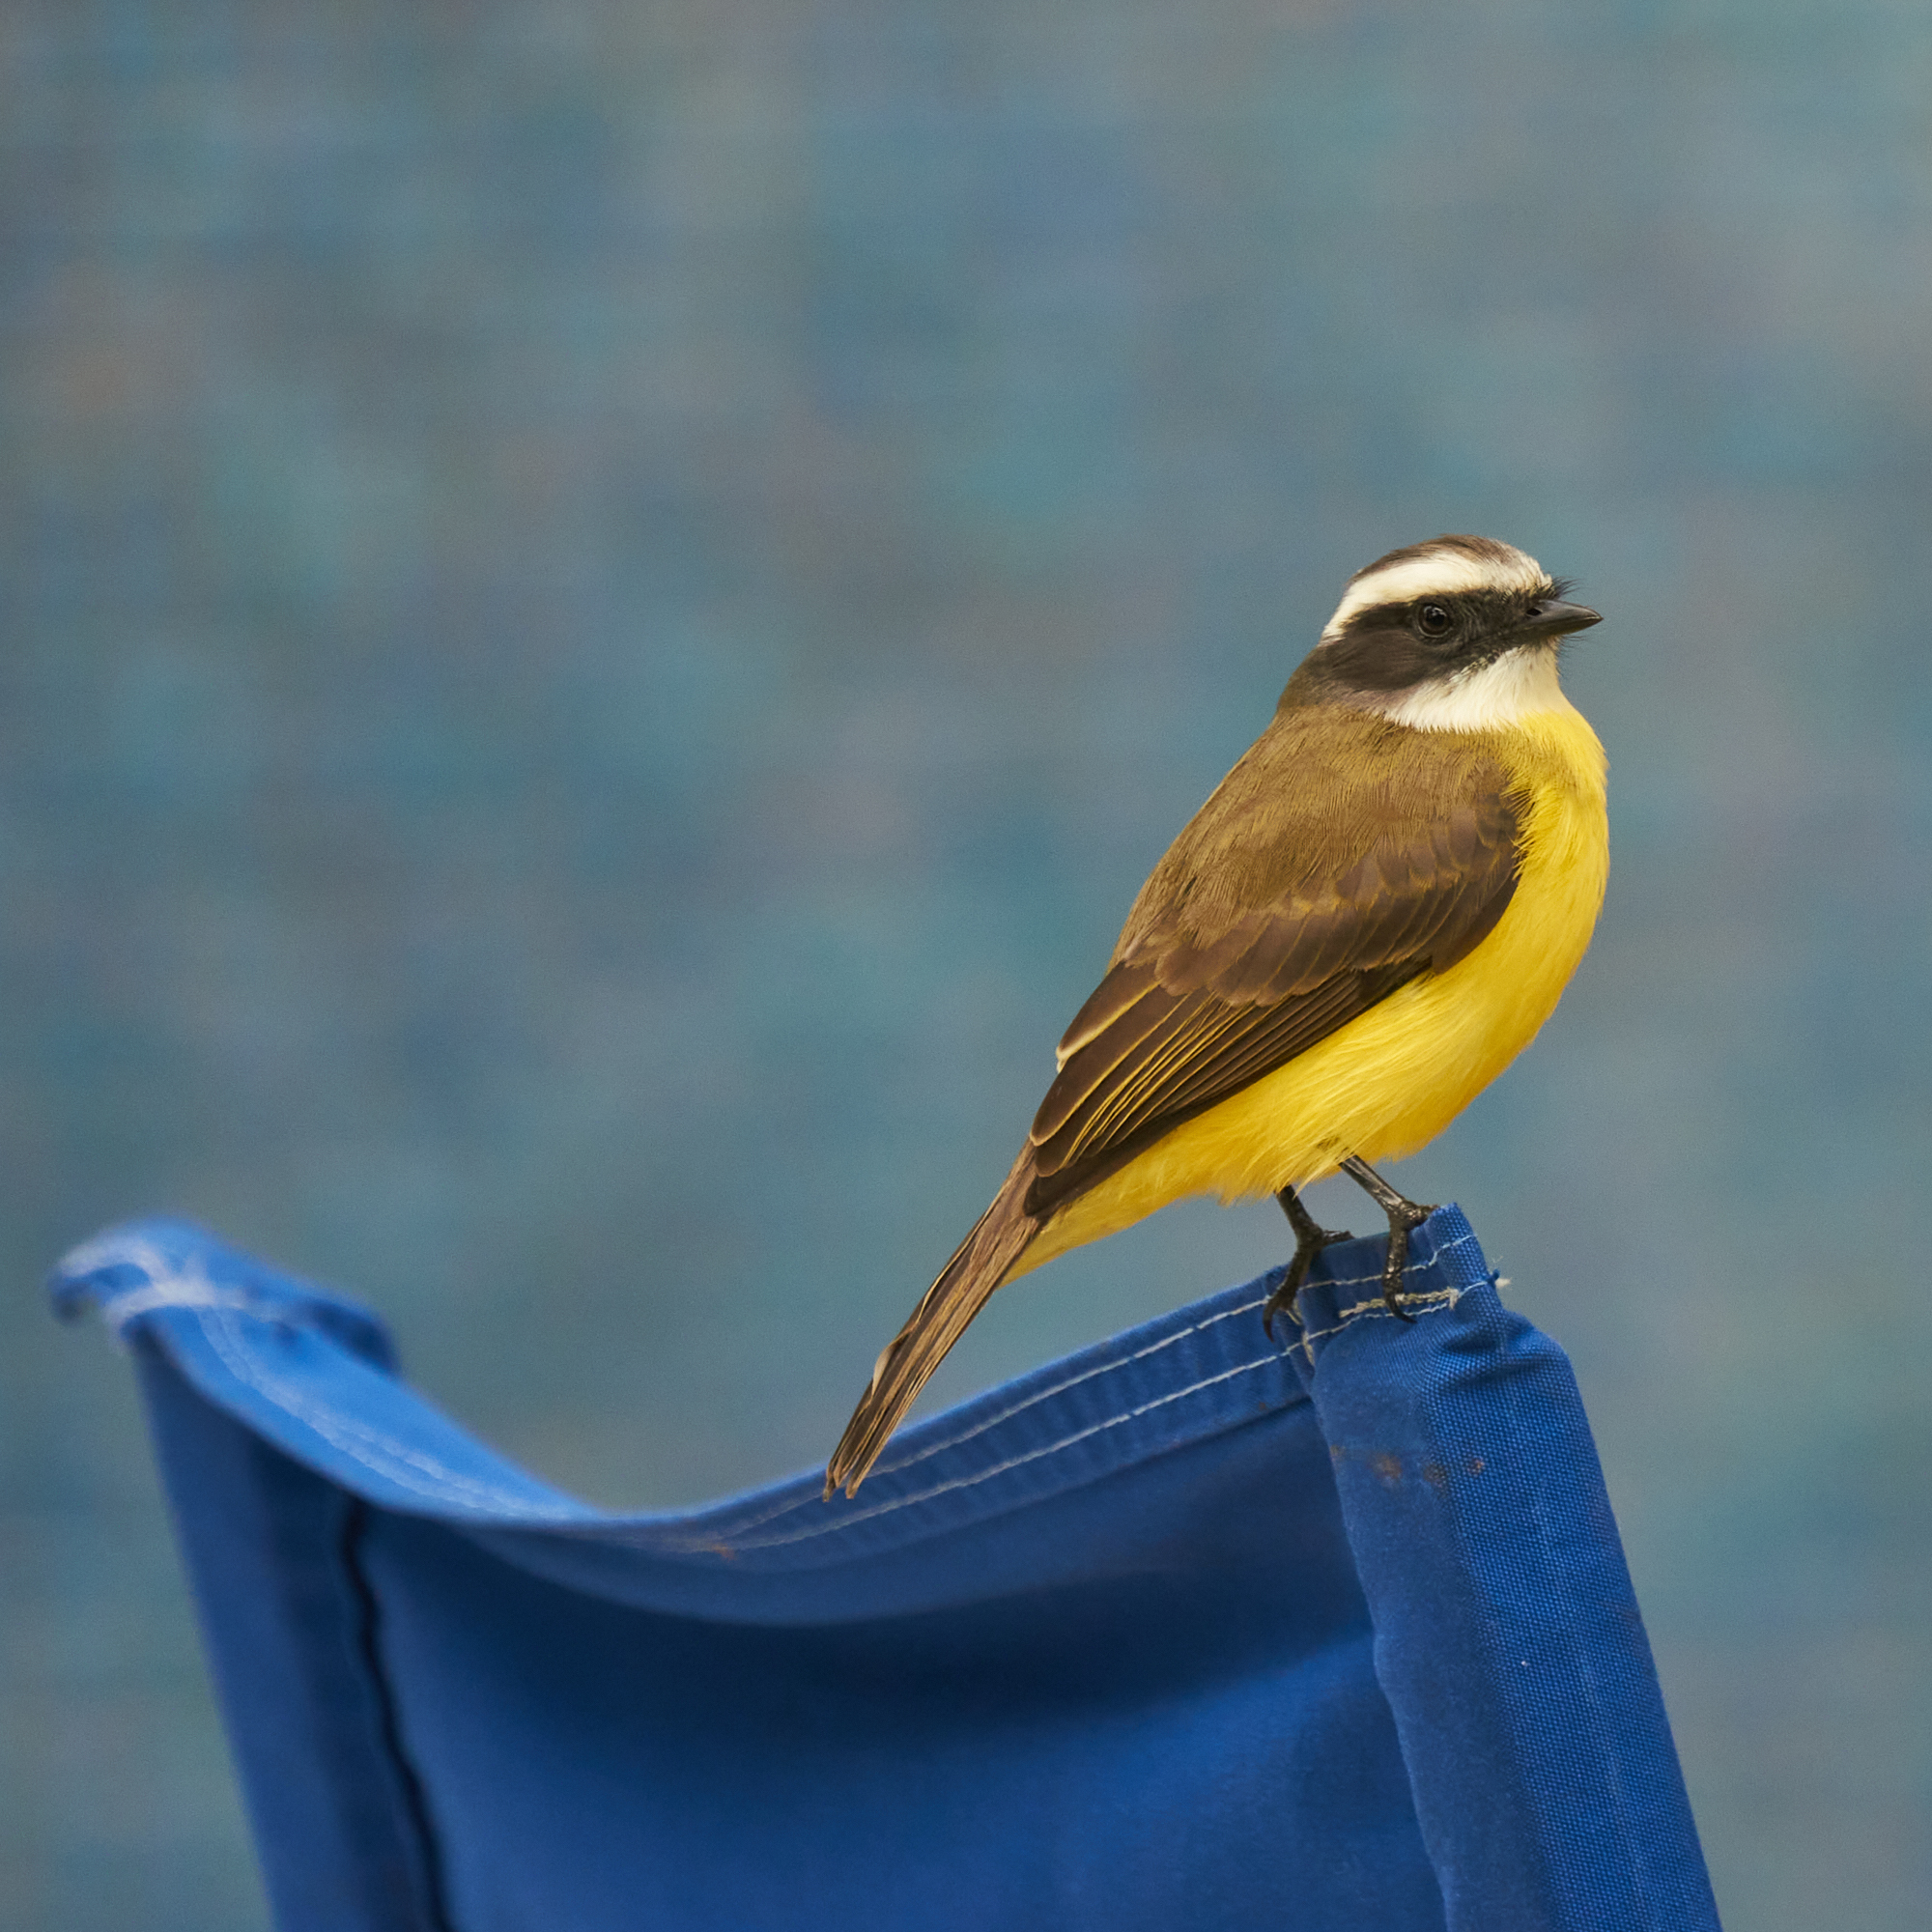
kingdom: Animalia
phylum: Chordata
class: Aves
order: Passeriformes
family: Tyrannidae
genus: Pitangus
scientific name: Pitangus sulphuratus
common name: Great kiskadee
